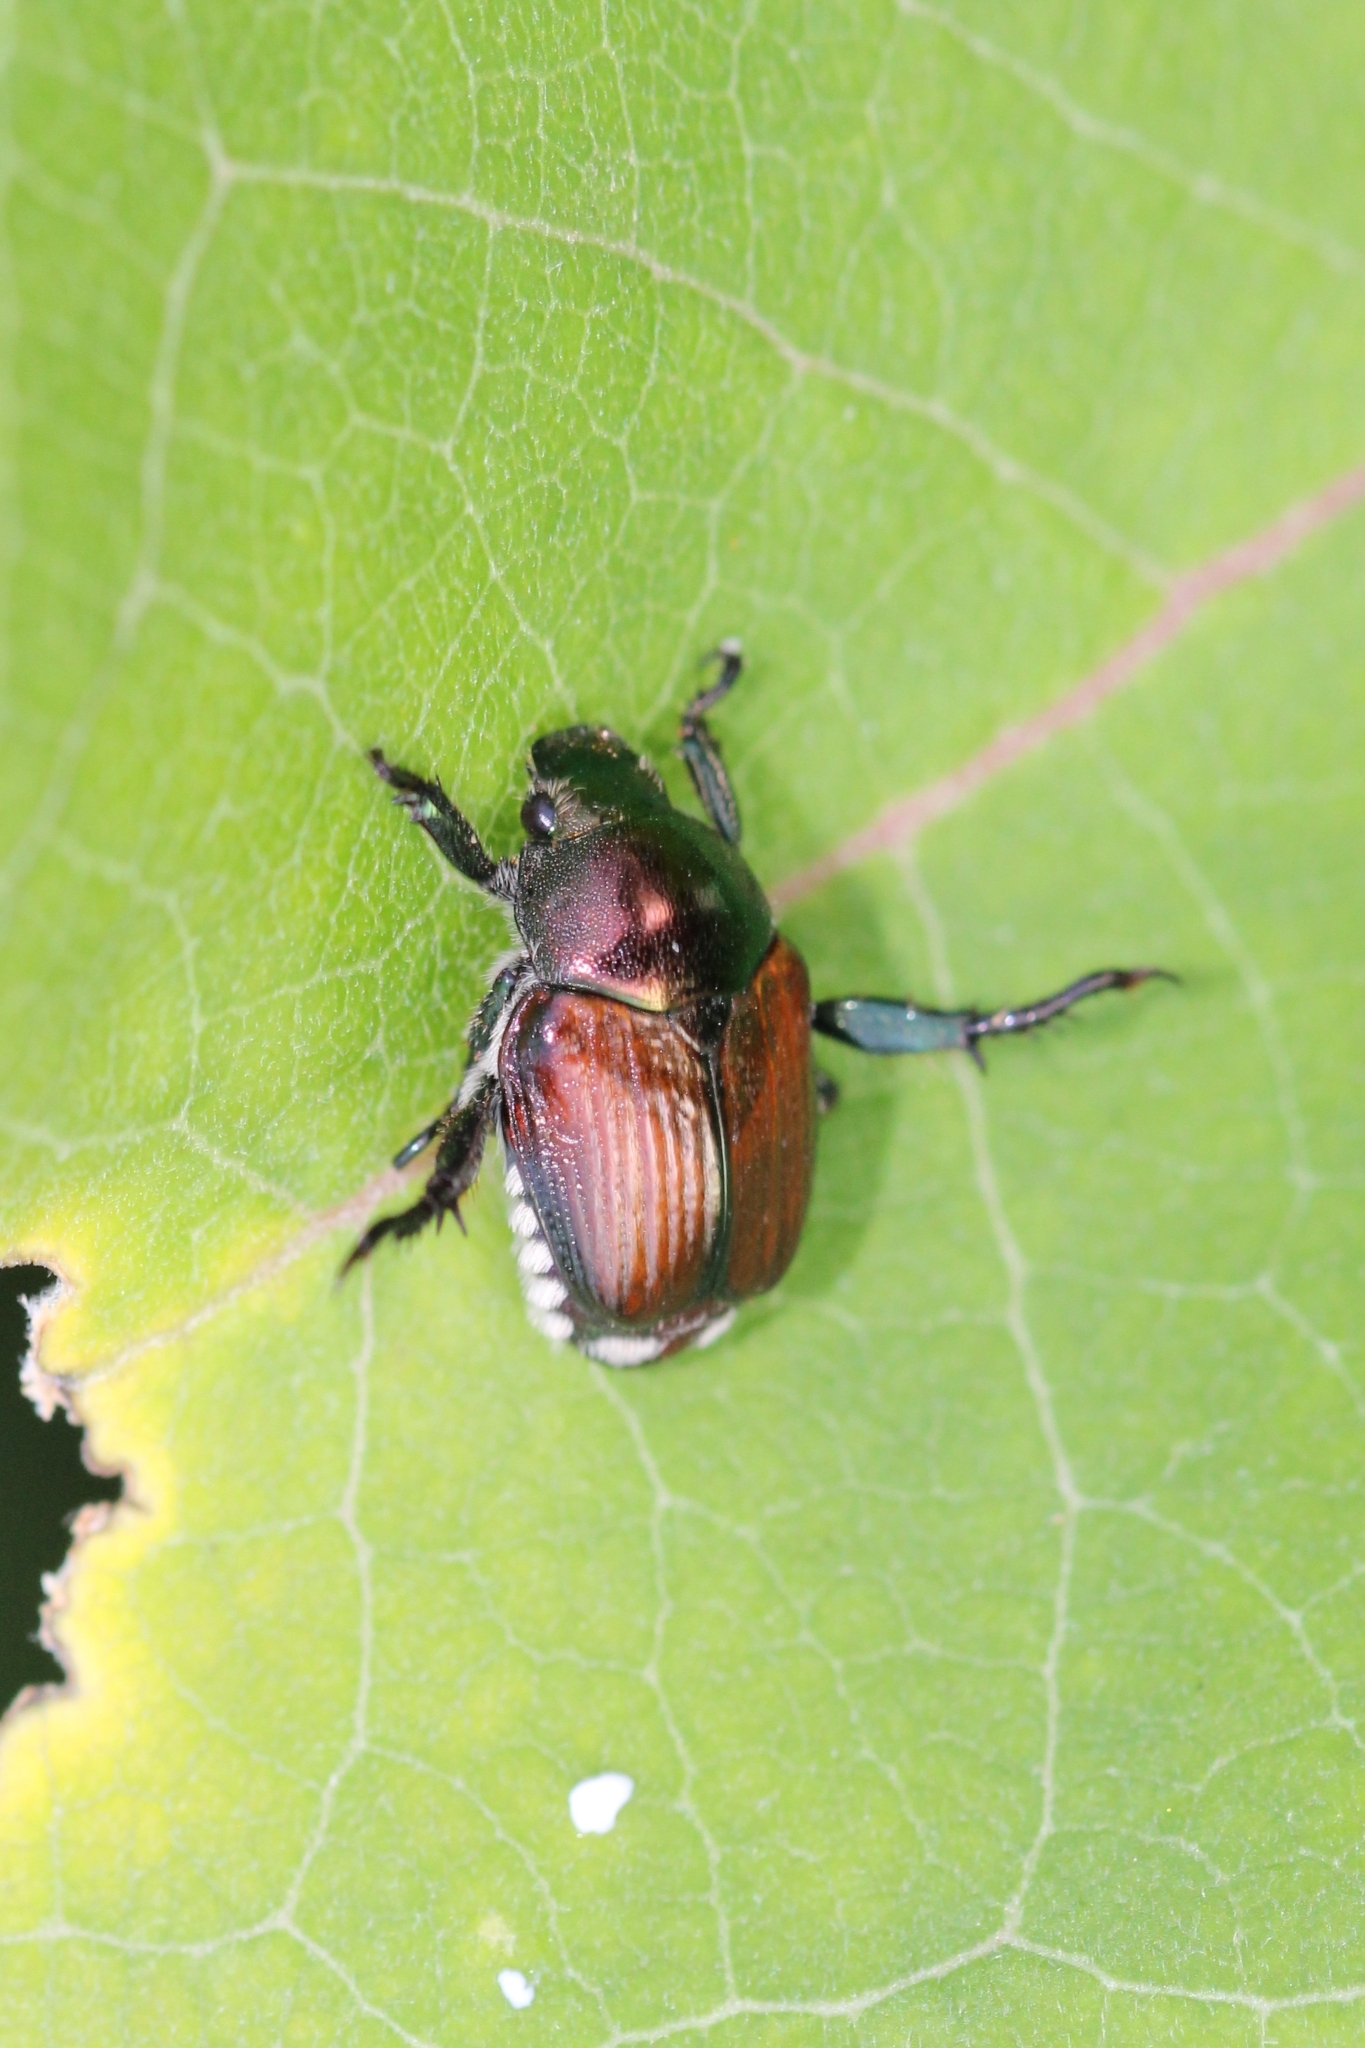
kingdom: Animalia
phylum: Arthropoda
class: Insecta
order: Coleoptera
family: Scarabaeidae
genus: Popillia
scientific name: Popillia japonica
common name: Japanese beetle
